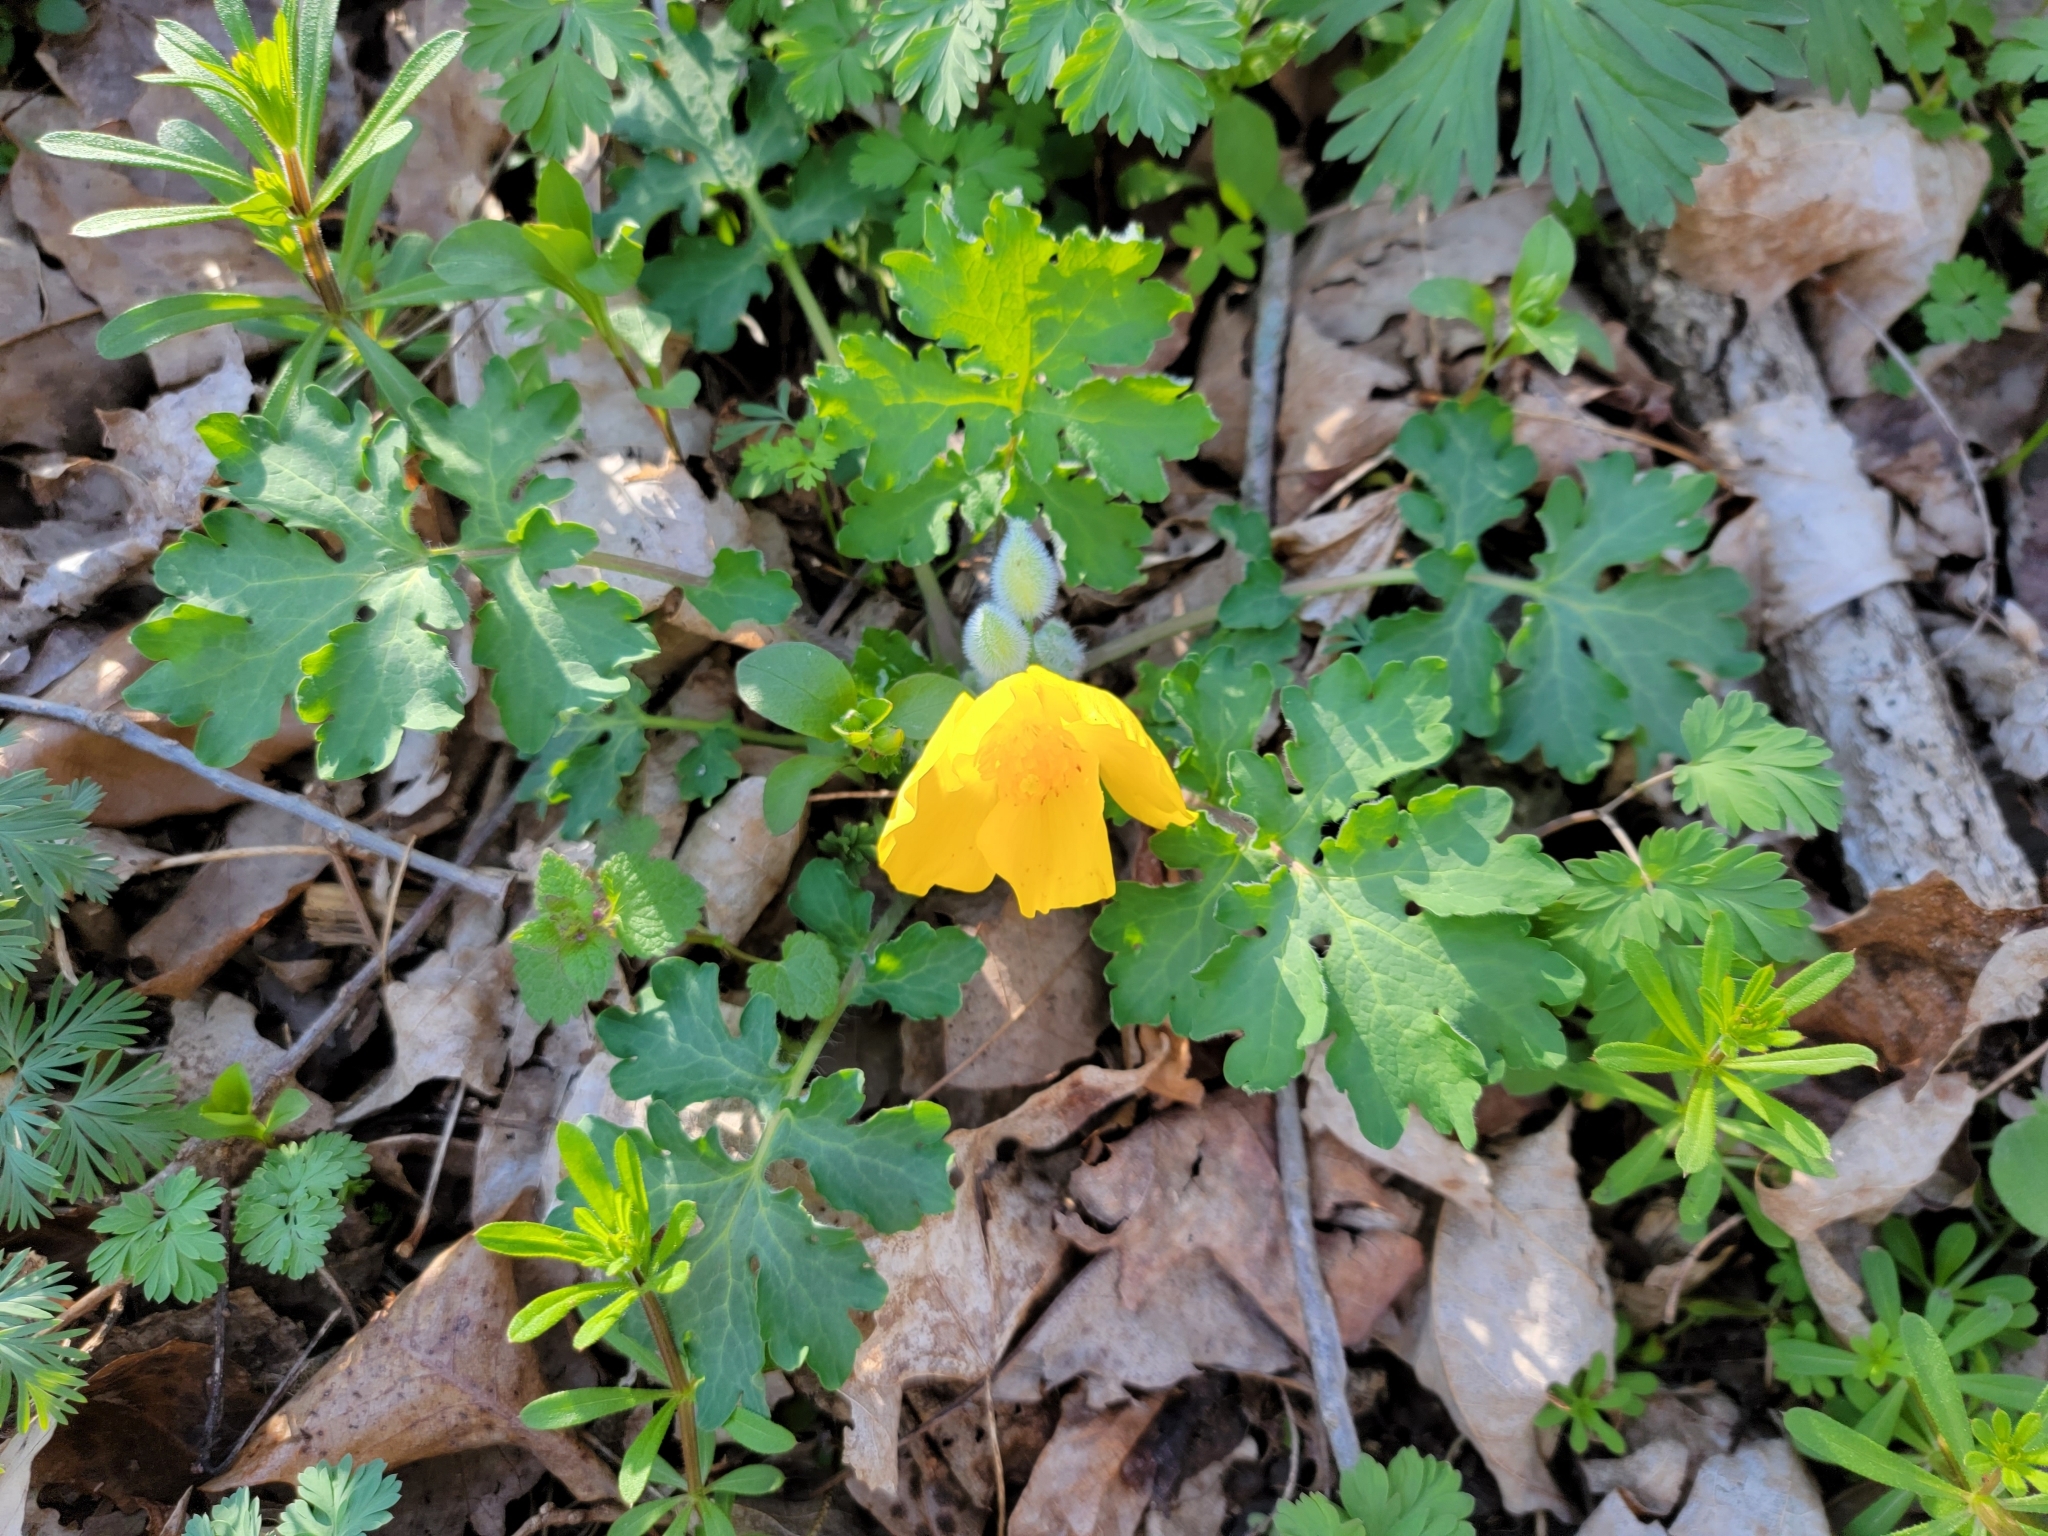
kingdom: Plantae
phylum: Tracheophyta
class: Magnoliopsida
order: Ranunculales
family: Papaveraceae
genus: Stylophorum
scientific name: Stylophorum diphyllum
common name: Celandine poppy
